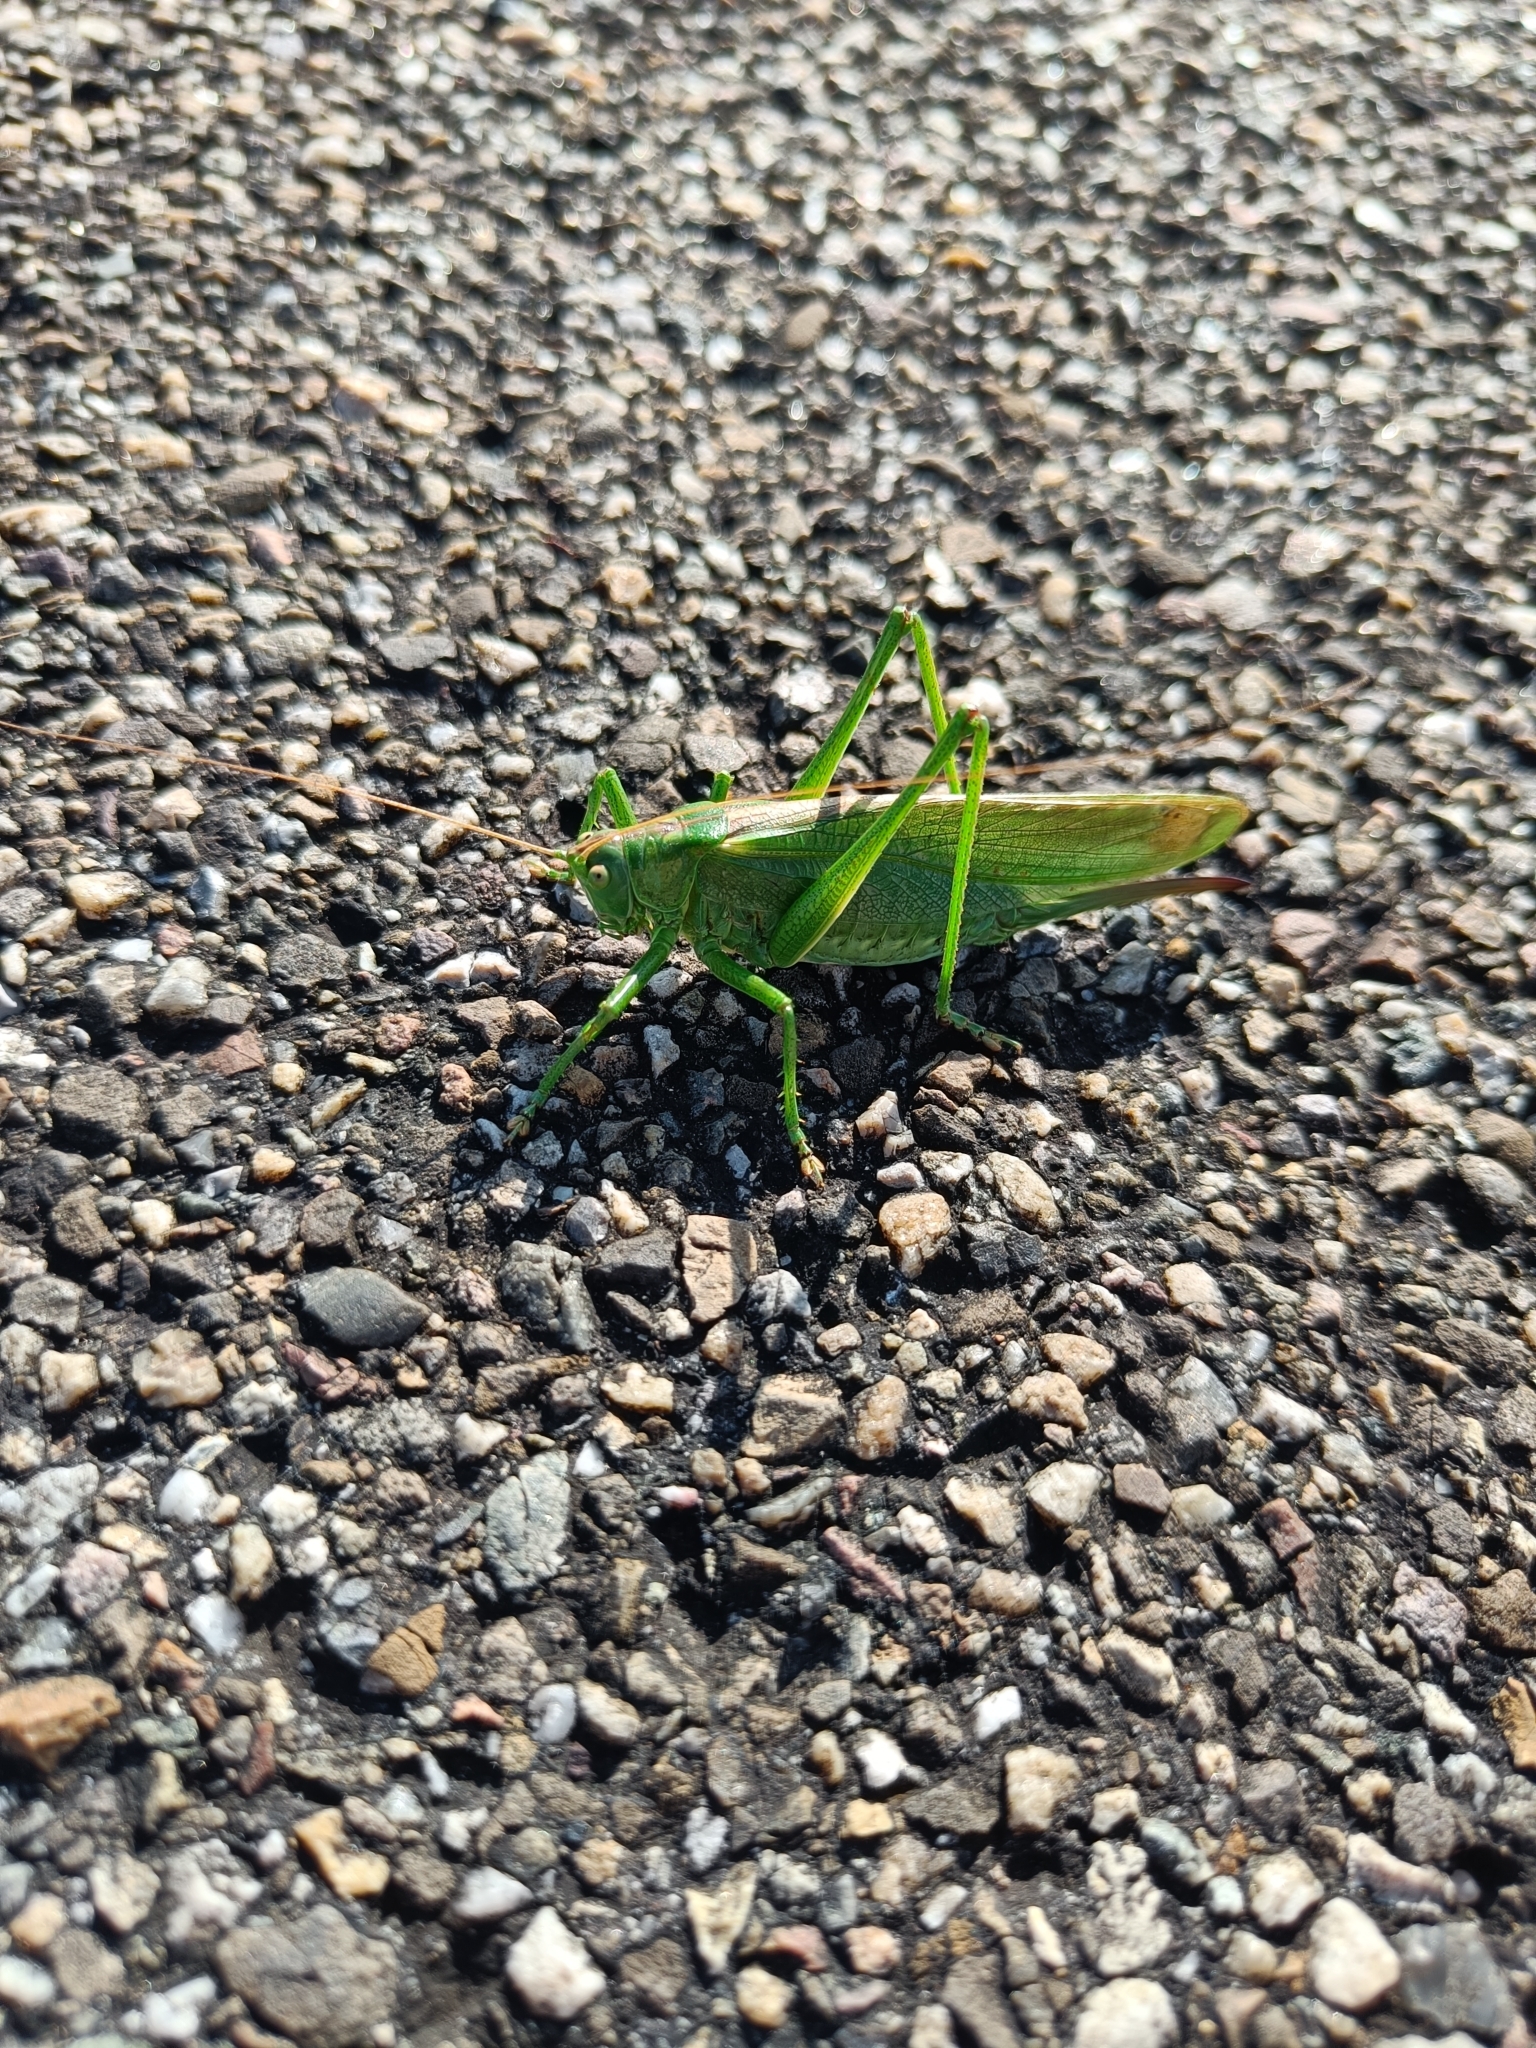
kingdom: Animalia
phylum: Arthropoda
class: Insecta
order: Orthoptera
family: Tettigoniidae
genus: Tettigonia
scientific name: Tettigonia viridissima
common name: Great green bush-cricket
